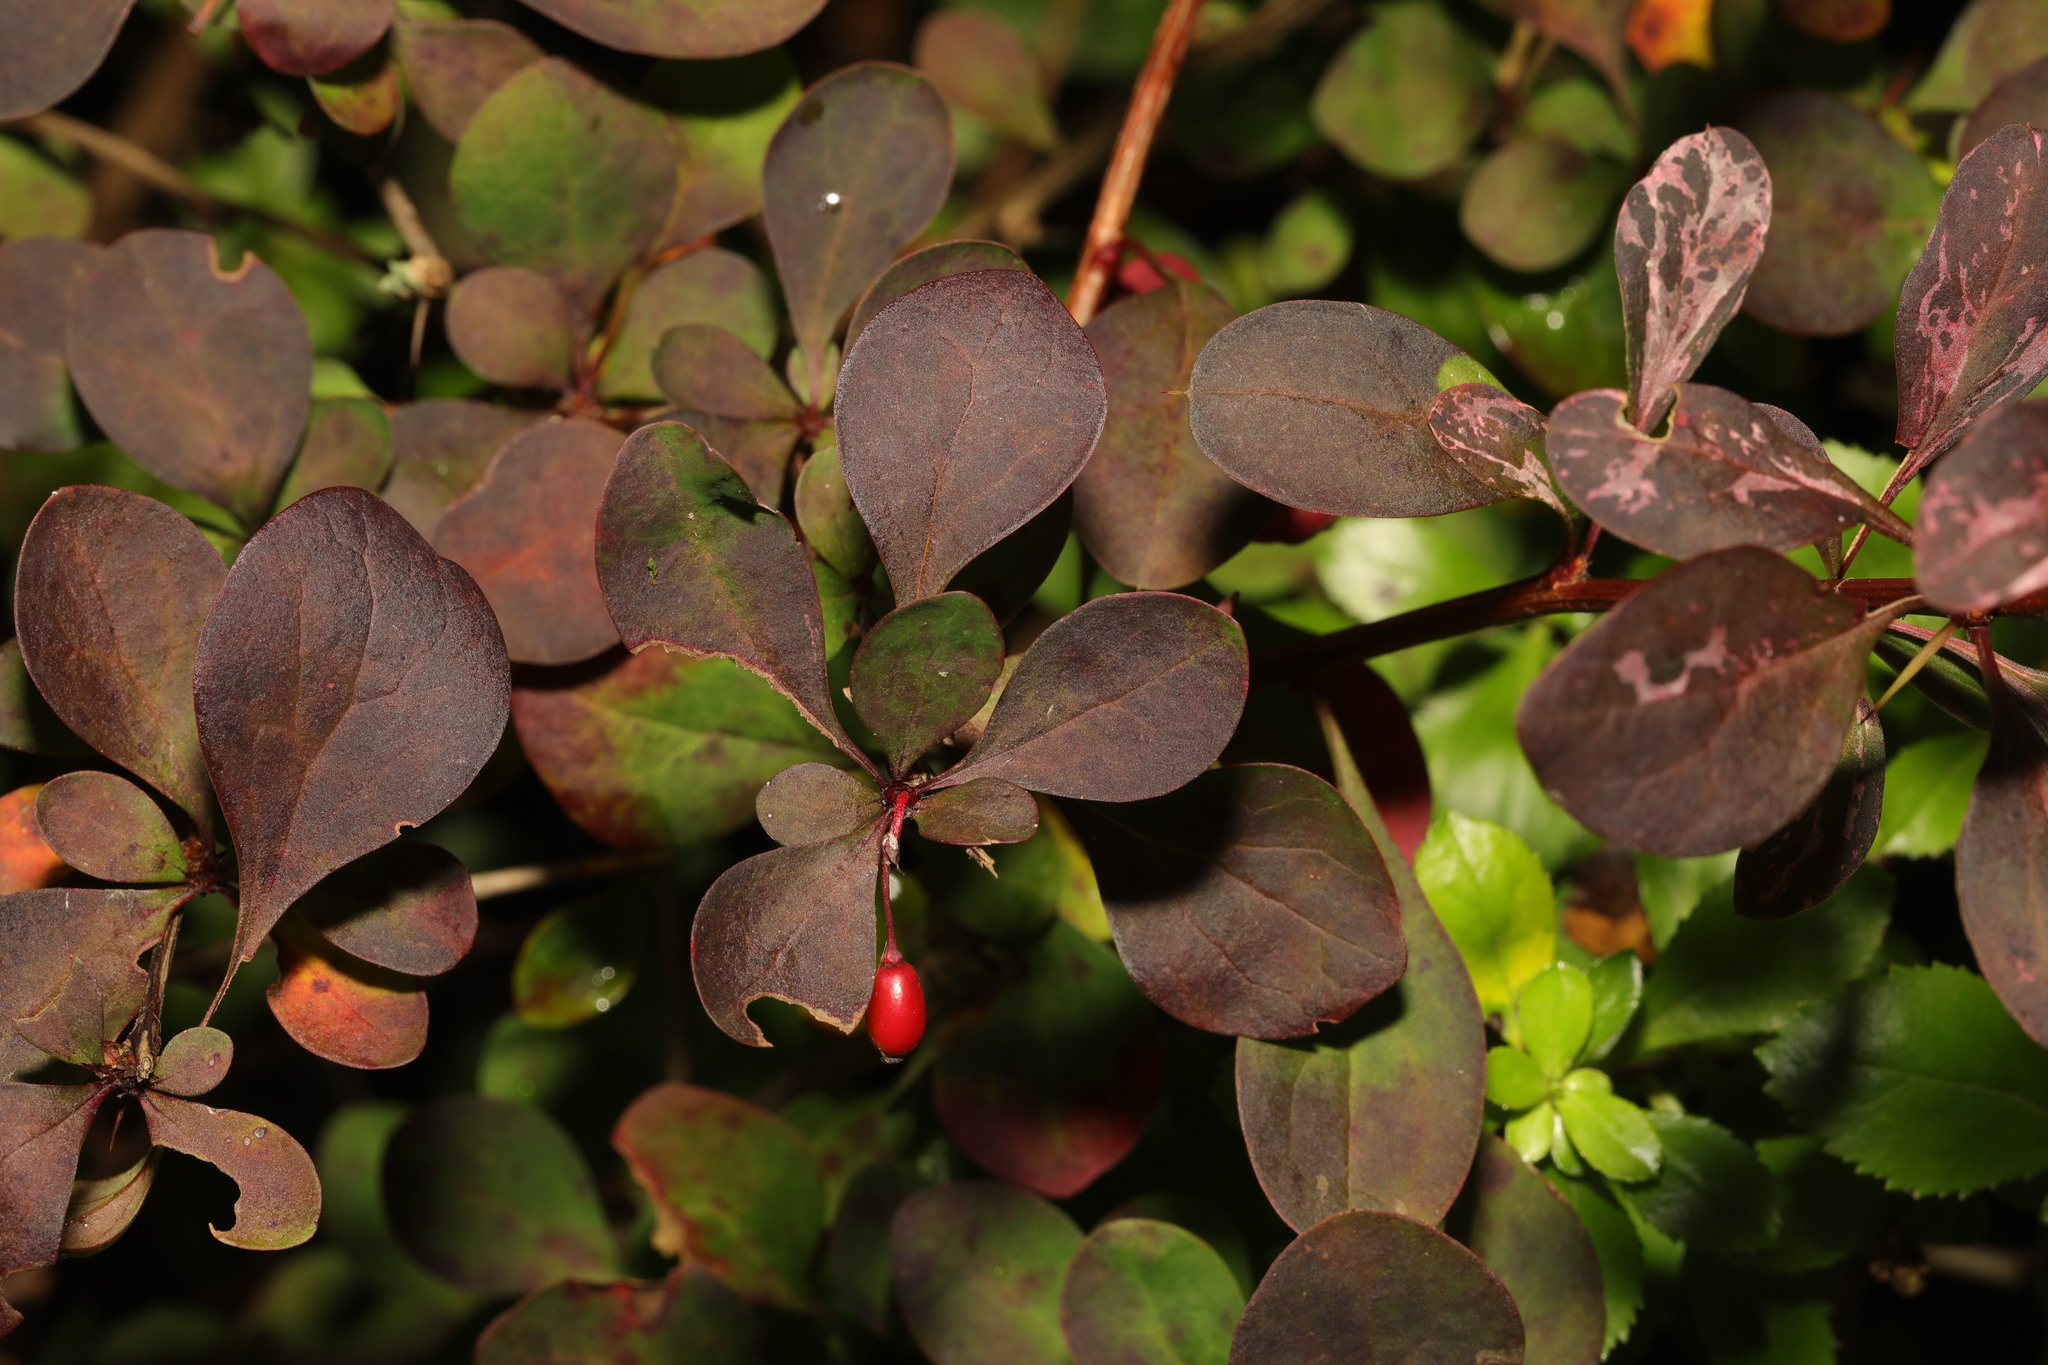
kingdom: Plantae
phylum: Tracheophyta
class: Magnoliopsida
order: Ranunculales
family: Berberidaceae
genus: Berberis
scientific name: Berberis thunbergii
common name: Japanese barberry
